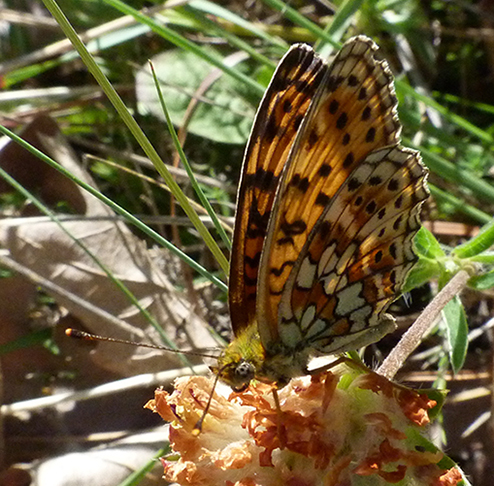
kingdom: Animalia
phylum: Arthropoda
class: Insecta
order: Lepidoptera
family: Nymphalidae
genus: Brenthis
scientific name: Brenthis hecate
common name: Twin-spot fritillary
